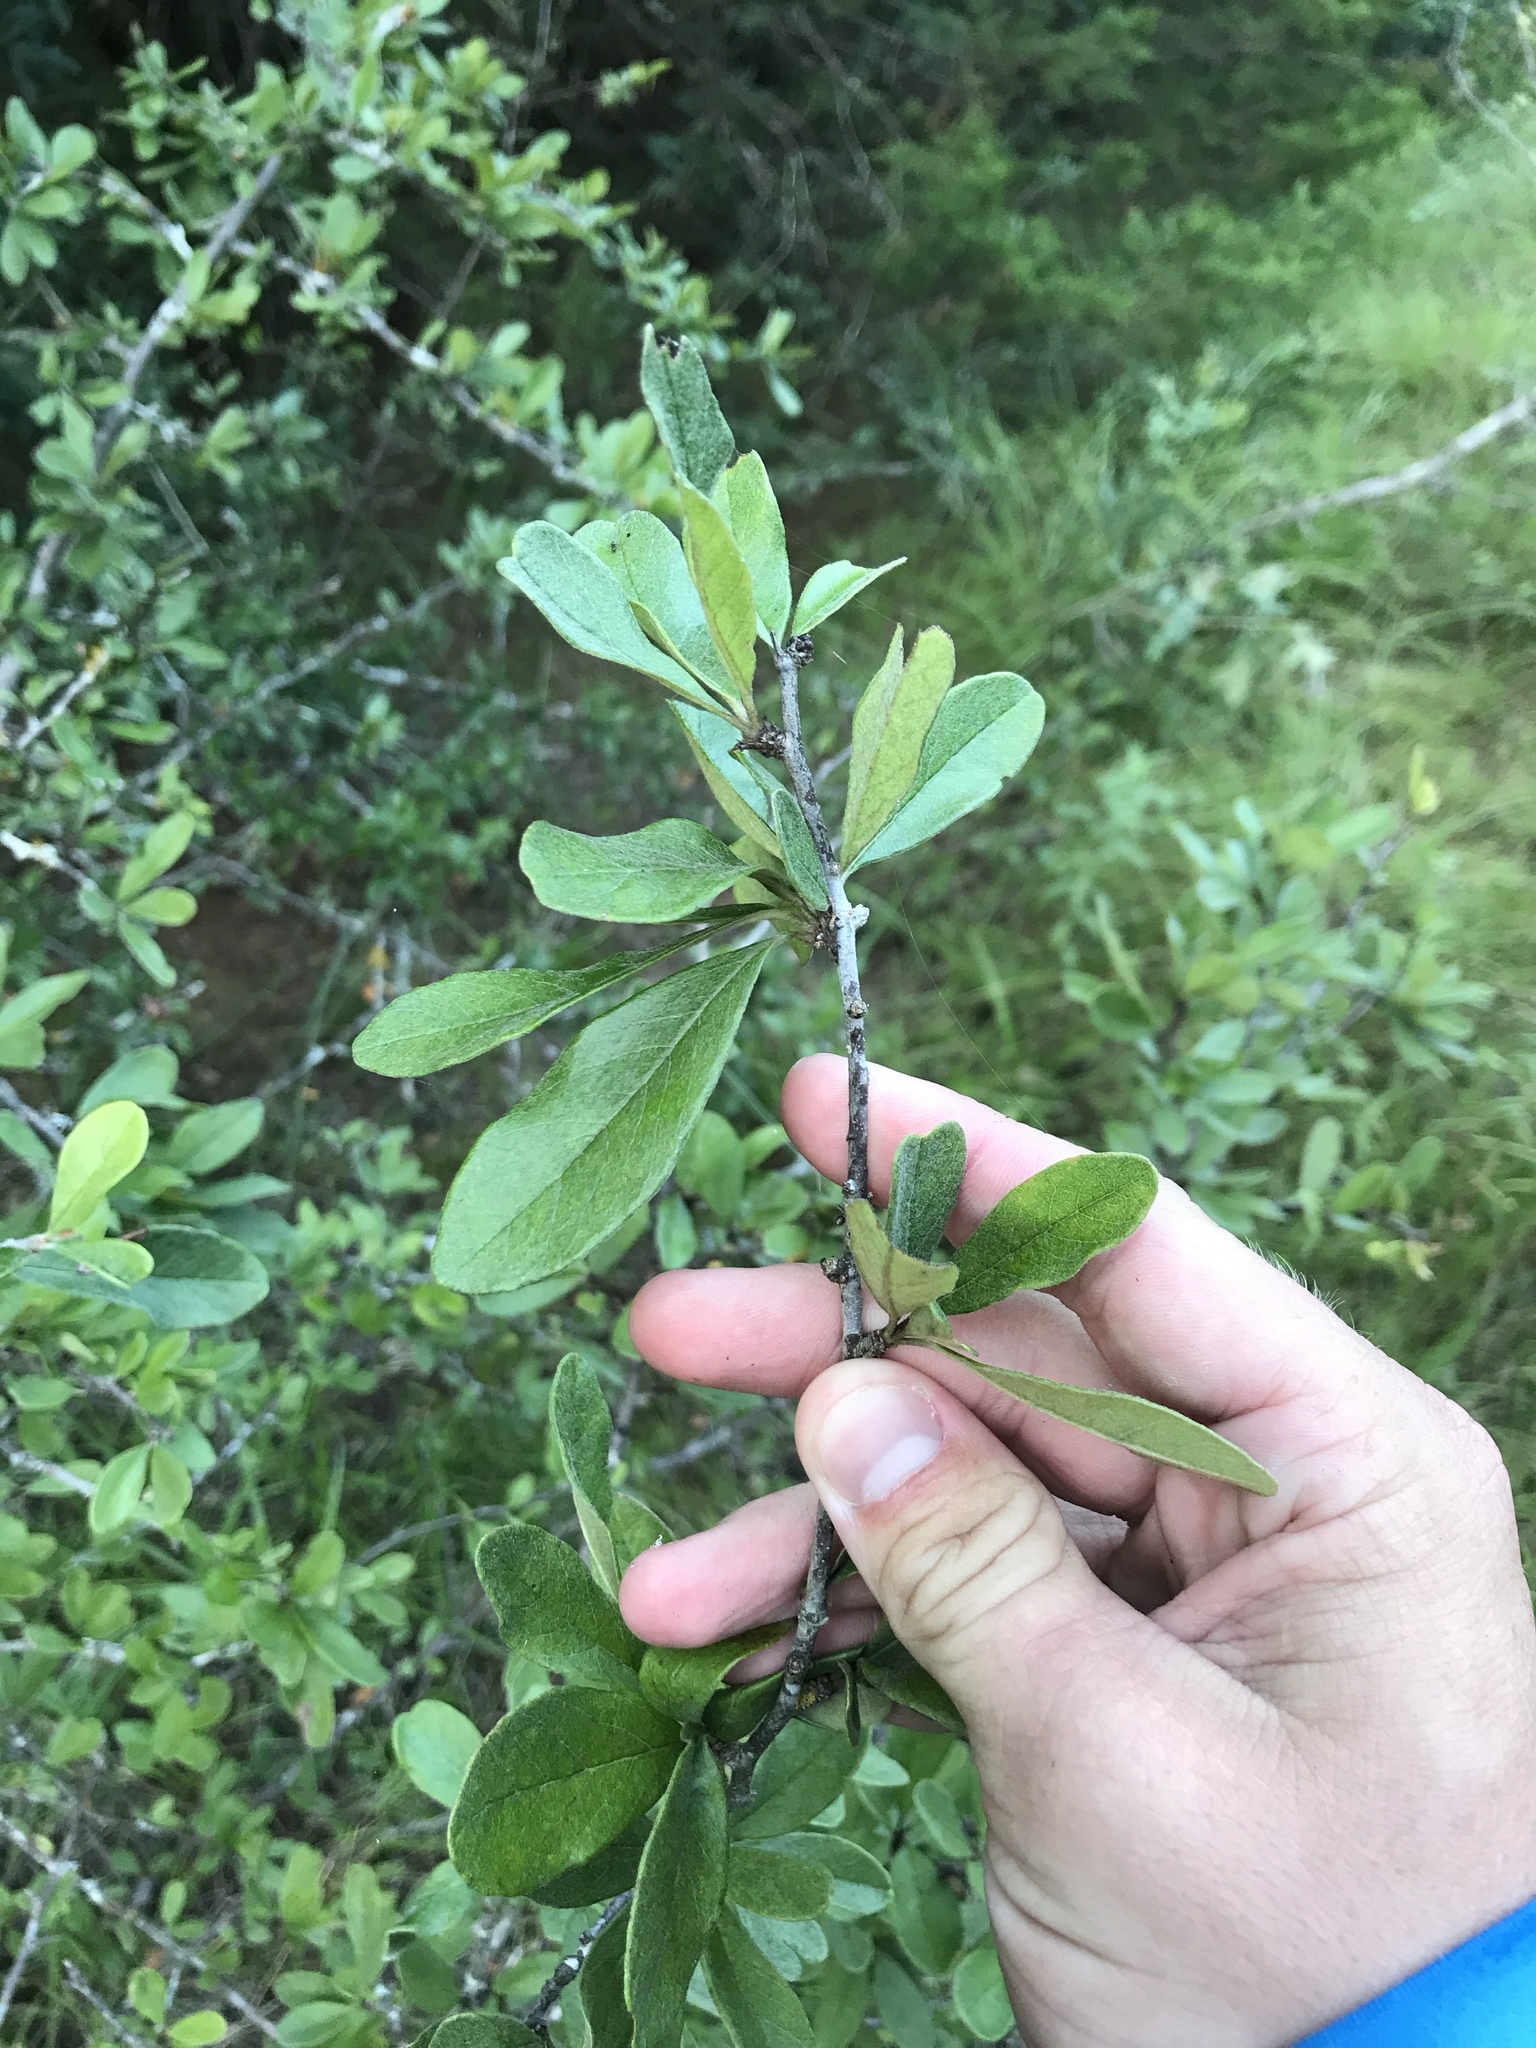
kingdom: Plantae
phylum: Tracheophyta
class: Magnoliopsida
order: Ericales
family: Sapotaceae
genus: Sideroxylon
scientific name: Sideroxylon lanuginosum
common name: Chittamwood
